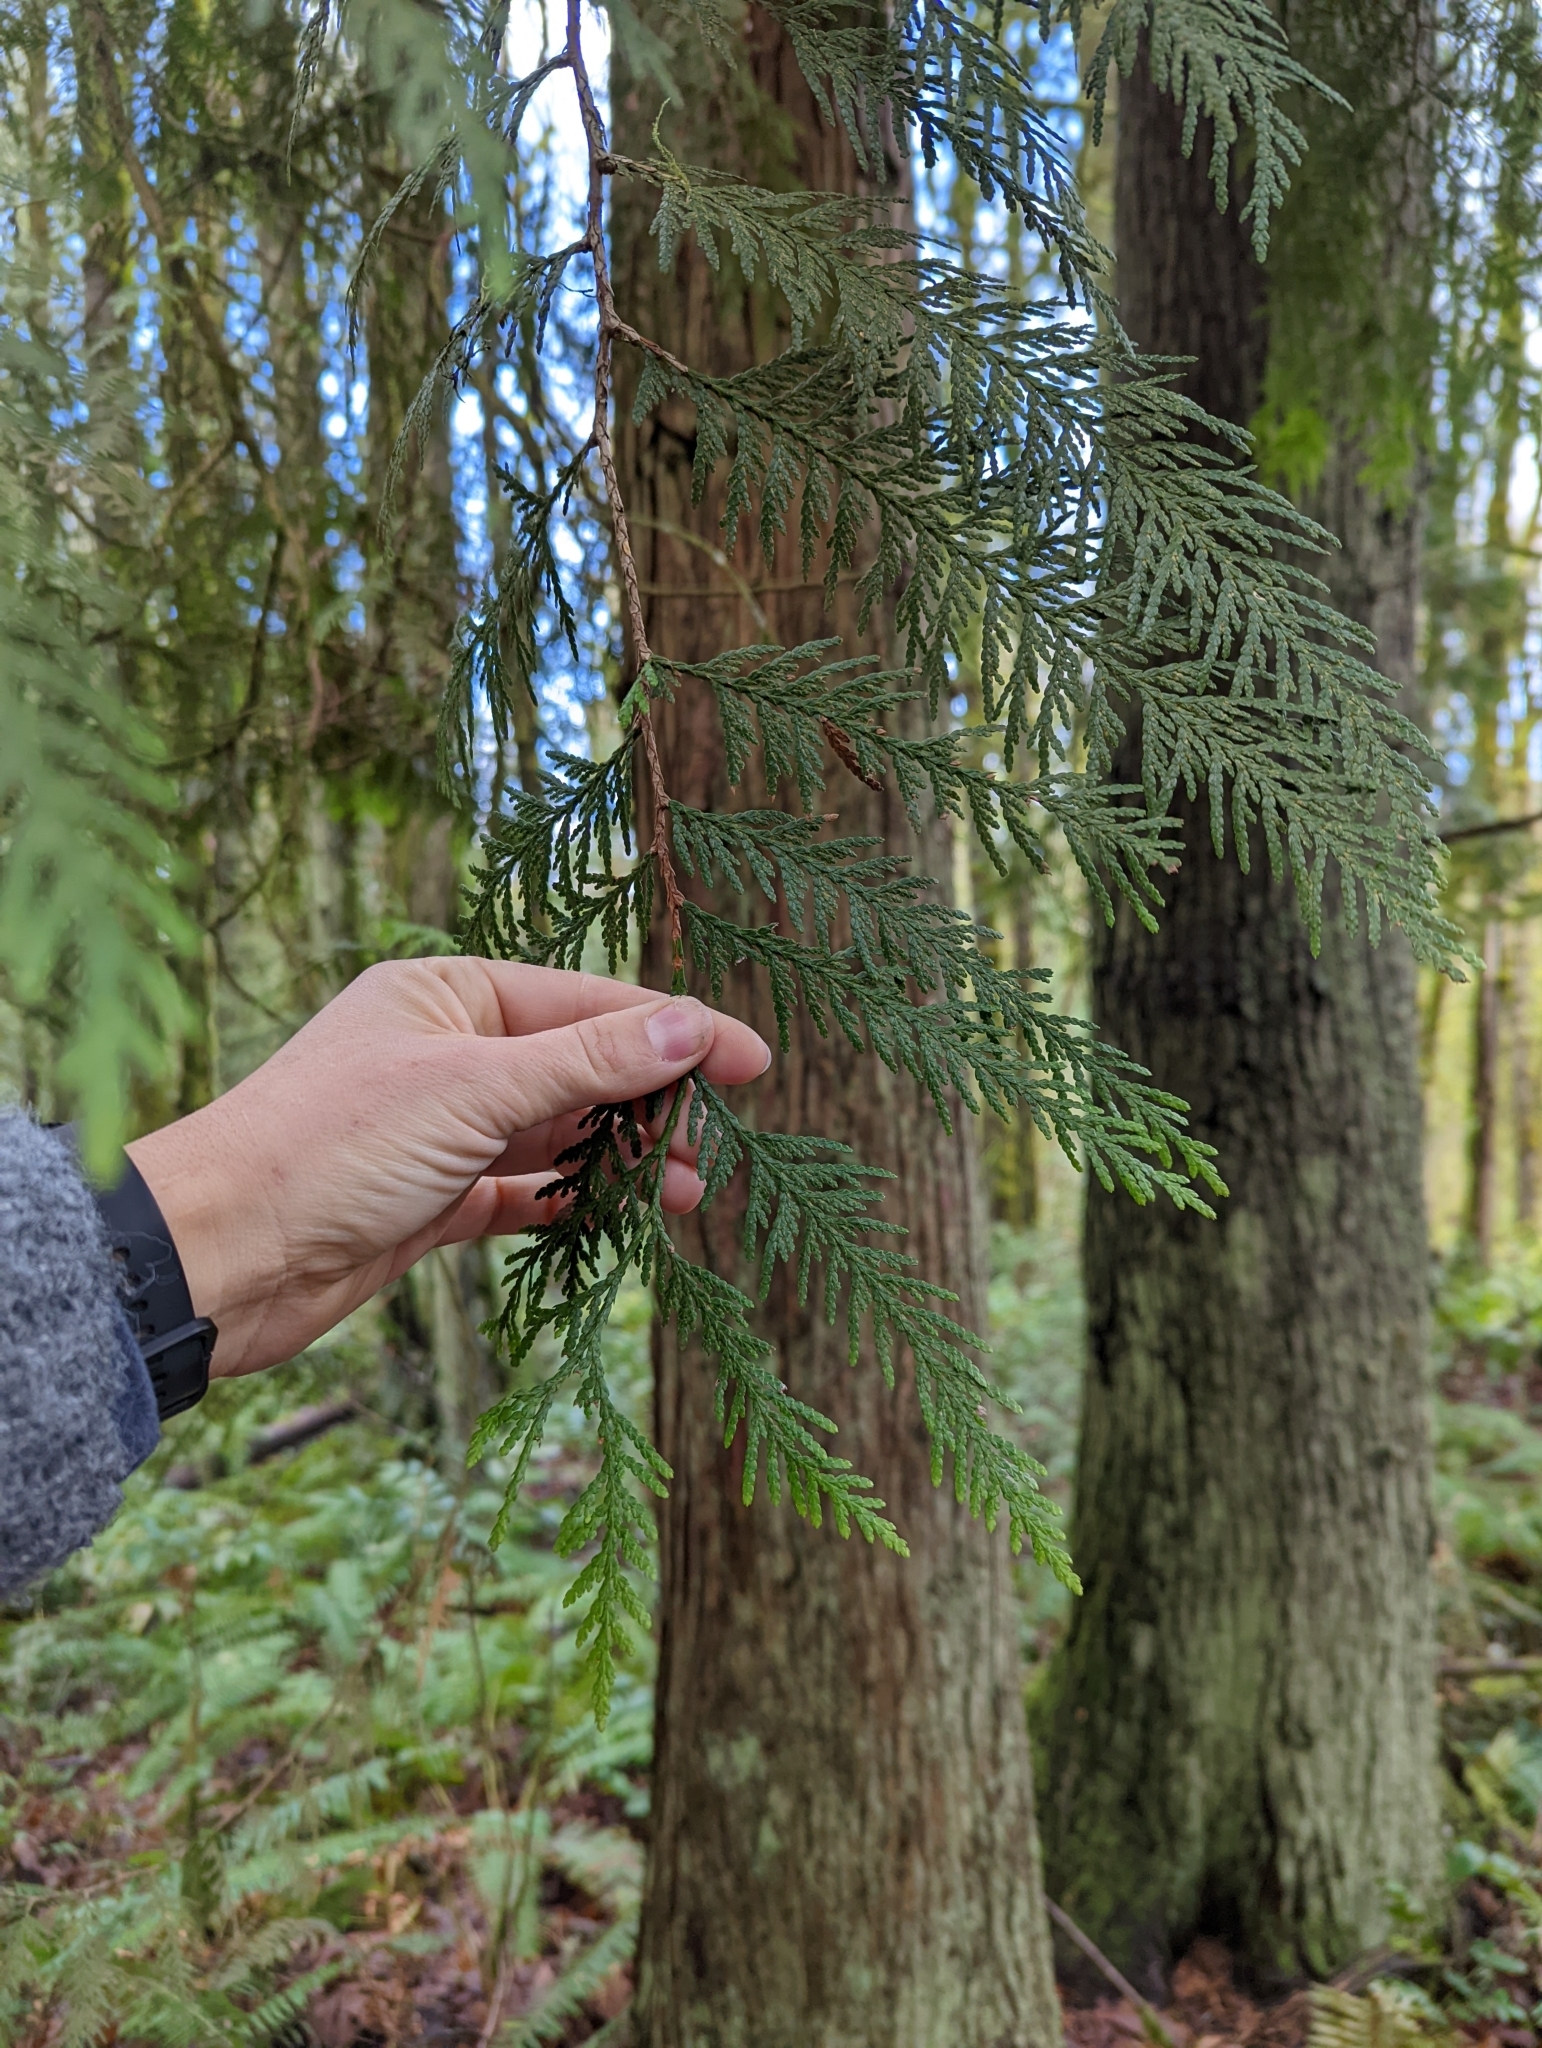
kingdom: Plantae
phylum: Tracheophyta
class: Pinopsida
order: Pinales
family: Cupressaceae
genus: Thuja
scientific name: Thuja plicata
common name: Western red-cedar
